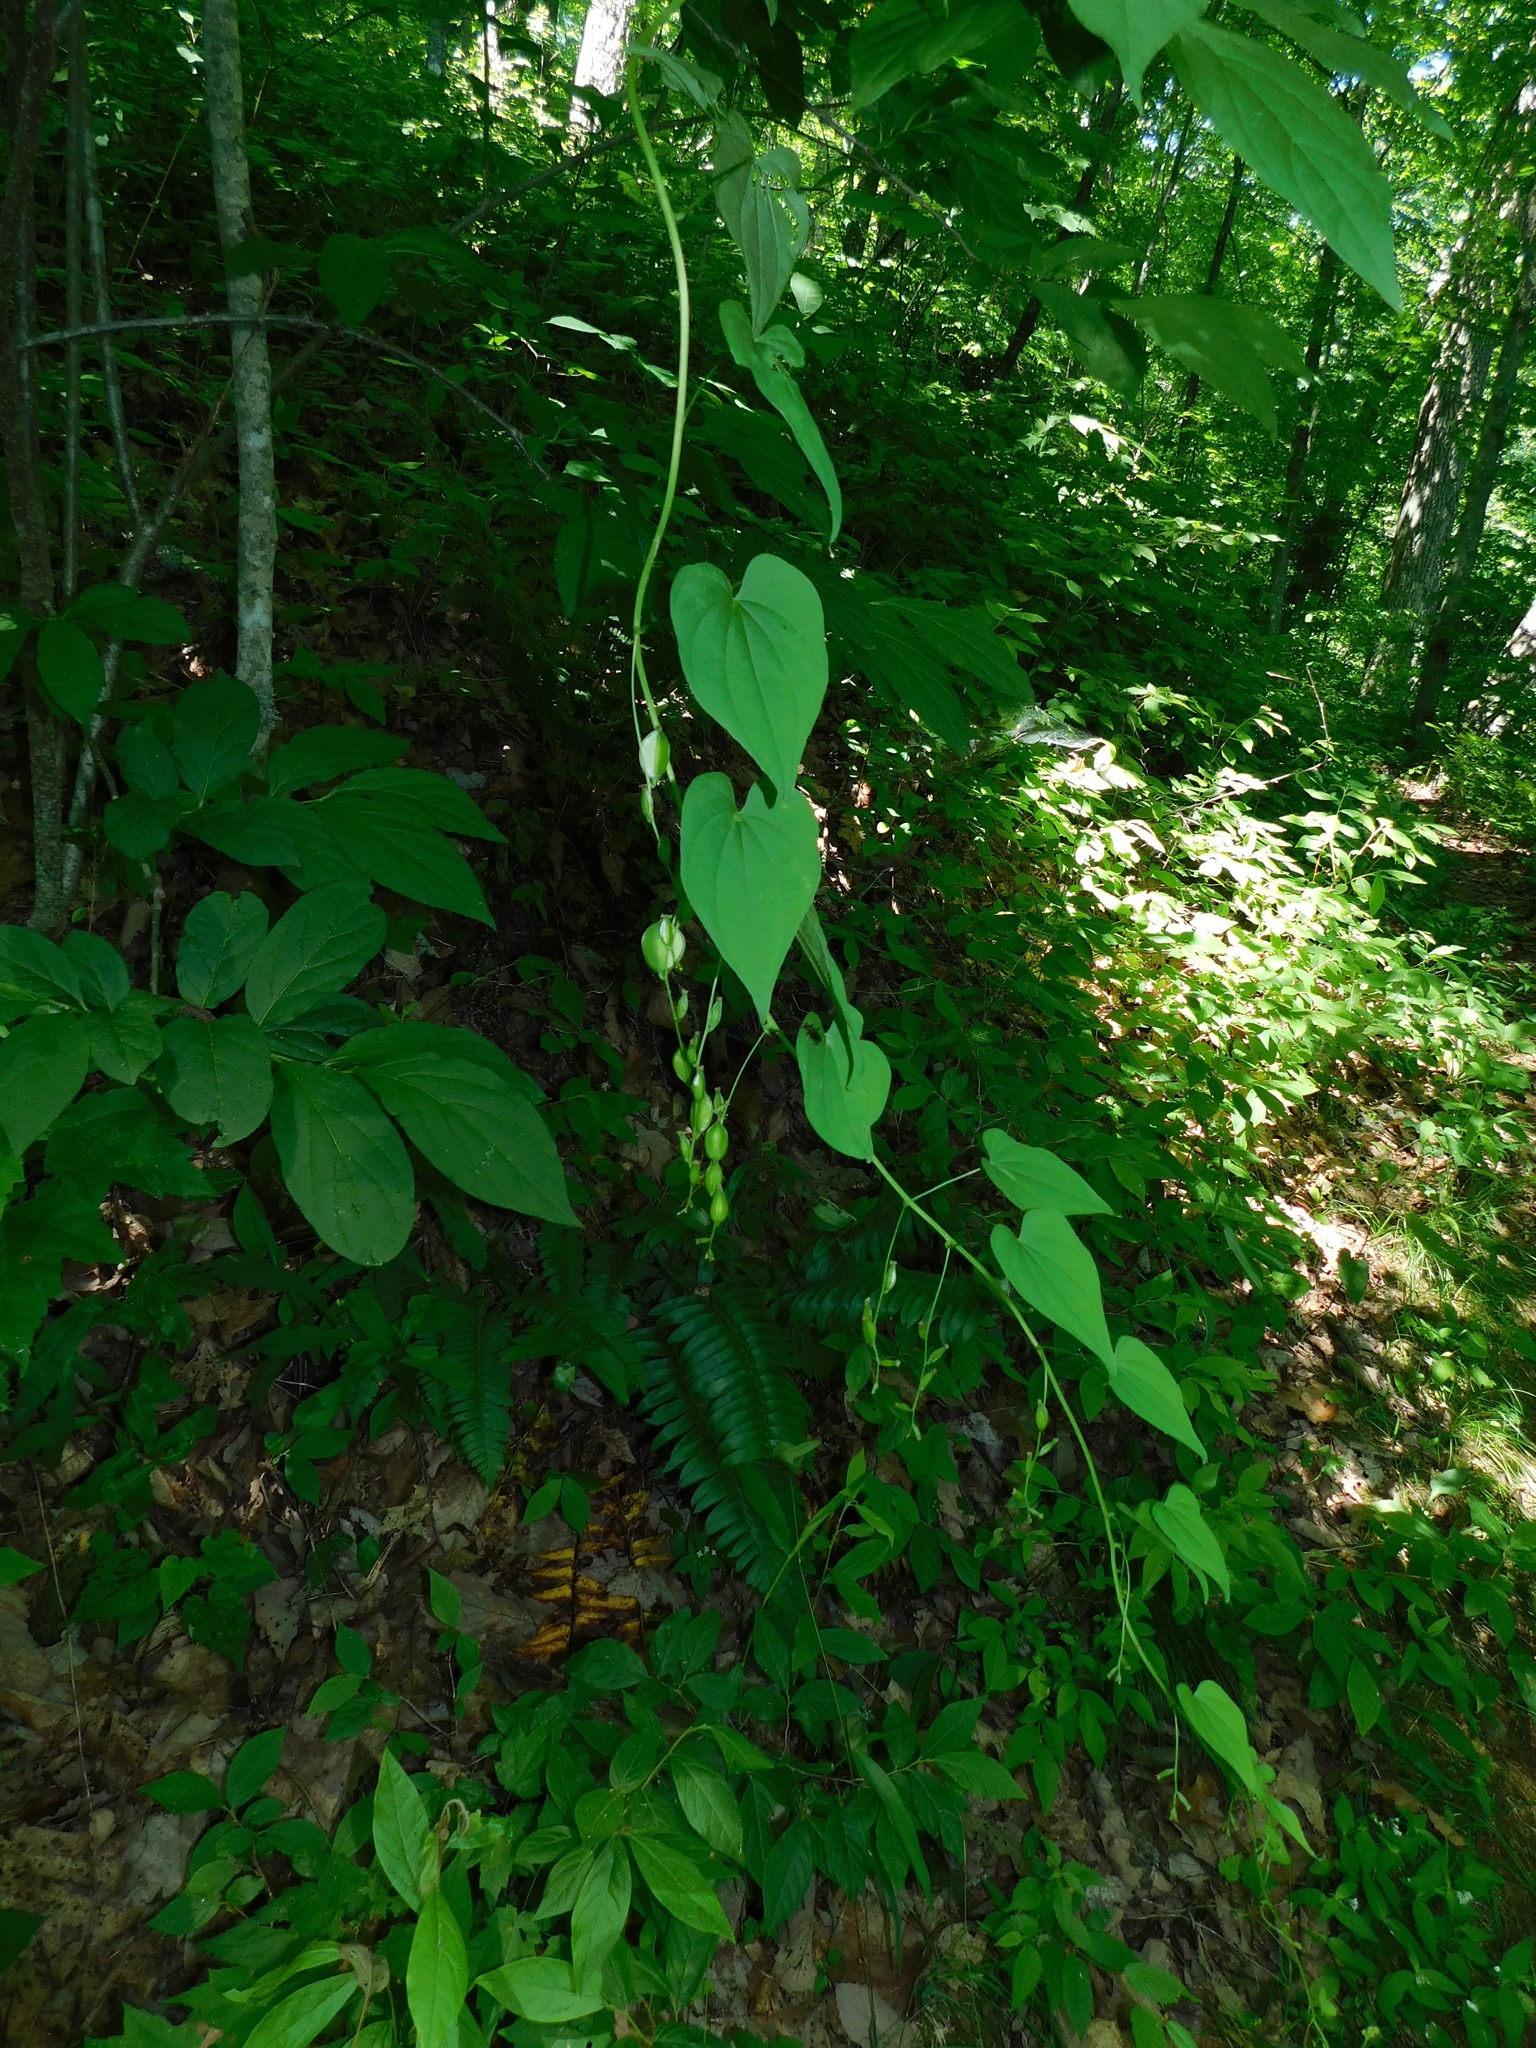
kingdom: Plantae
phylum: Tracheophyta
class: Liliopsida
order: Dioscoreales
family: Dioscoreaceae
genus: Dioscorea
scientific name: Dioscorea villosa
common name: Wild yam
